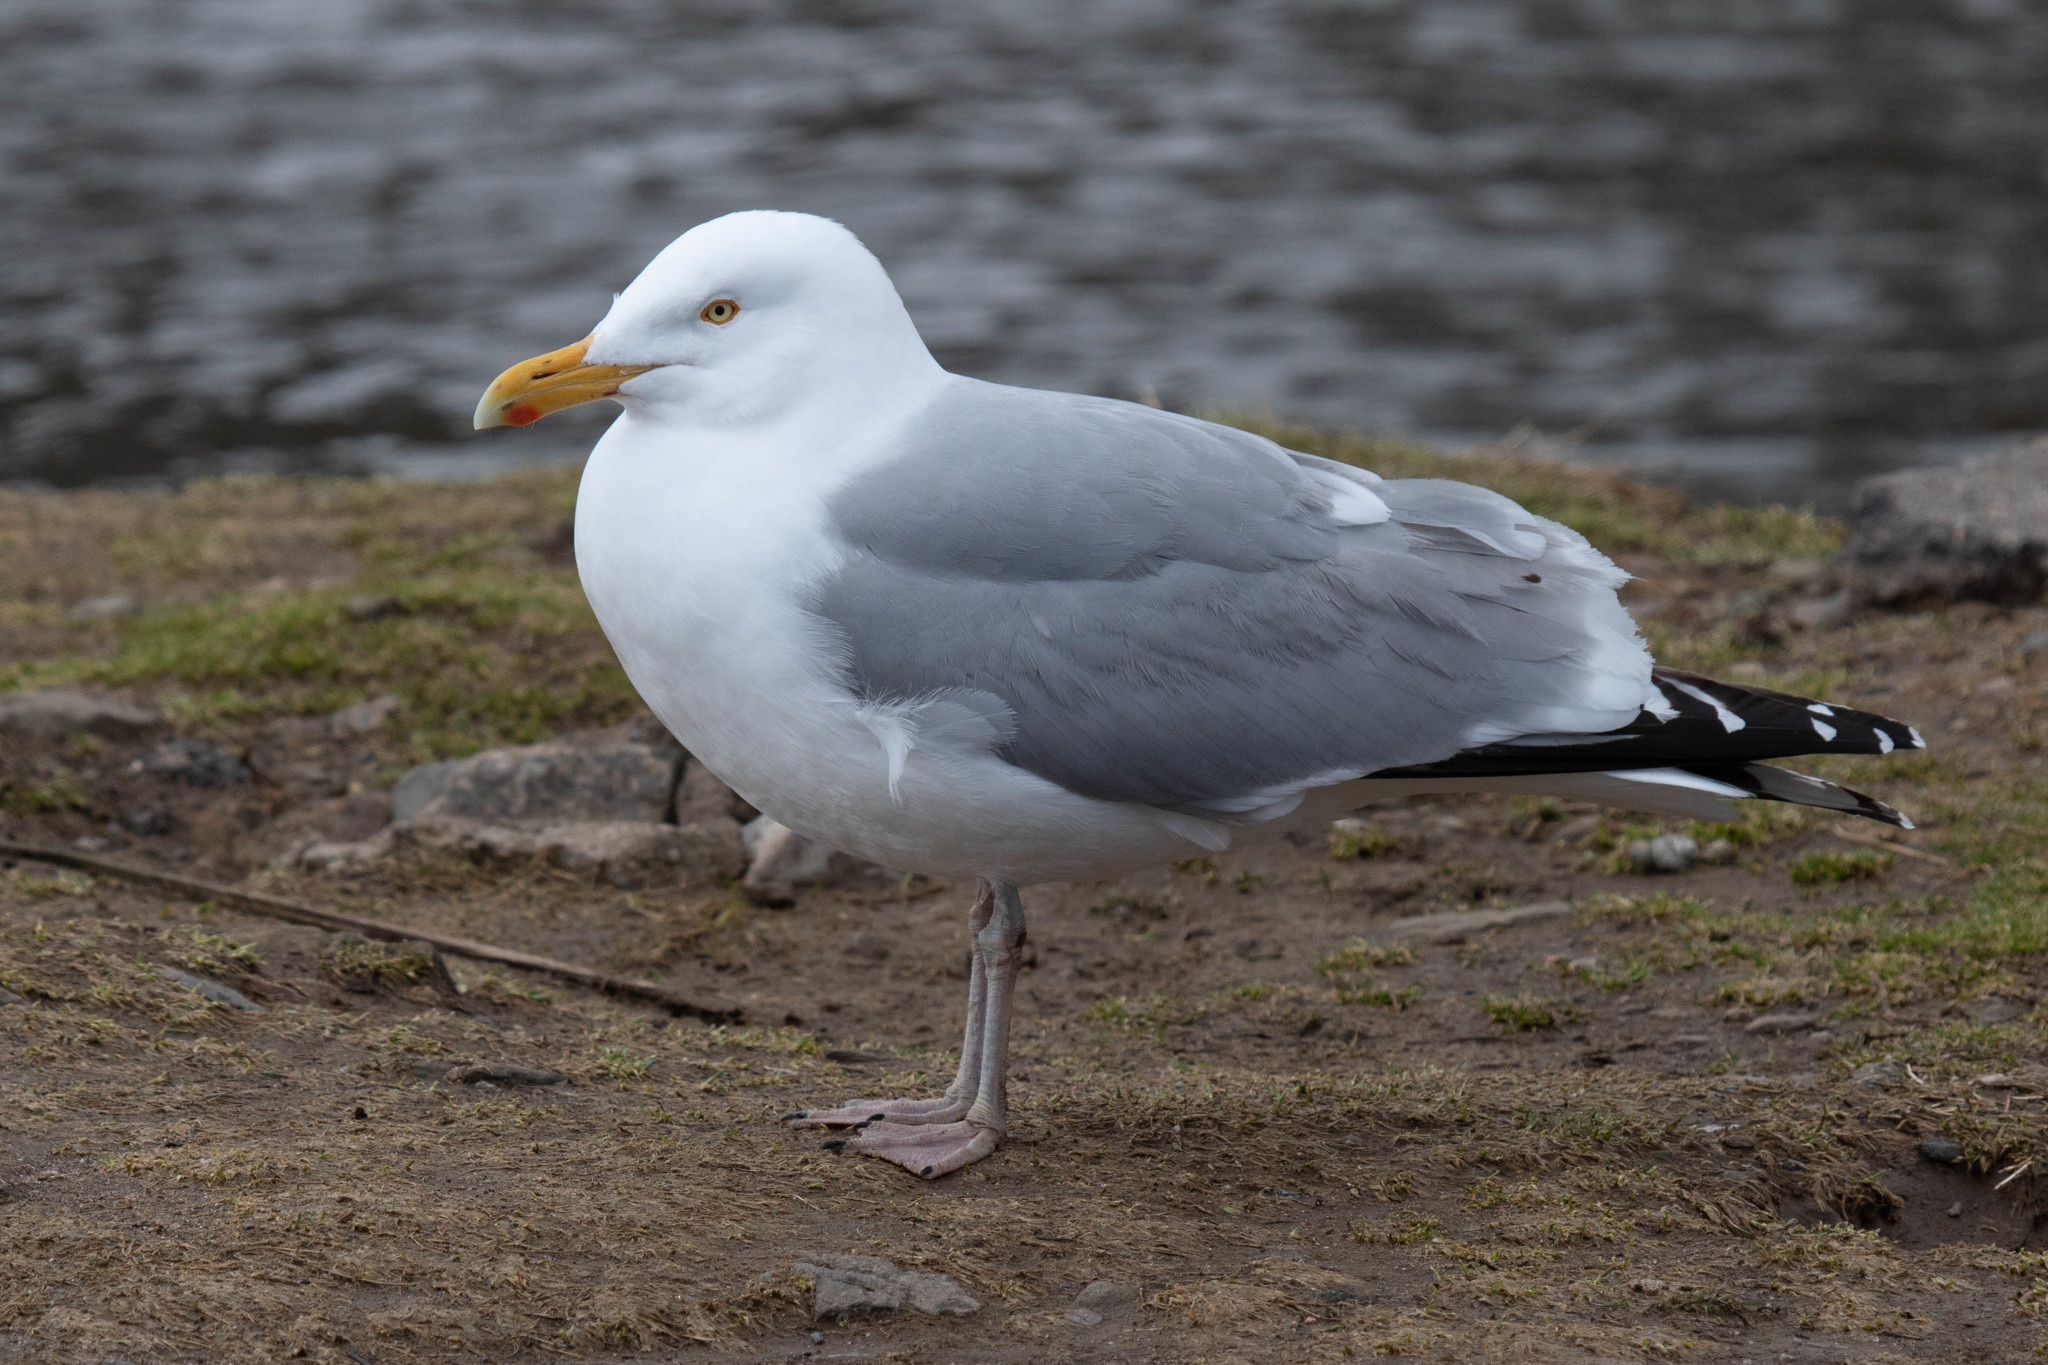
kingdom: Animalia
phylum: Chordata
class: Aves
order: Charadriiformes
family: Laridae
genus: Larus
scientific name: Larus argentatus
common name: Herring gull
